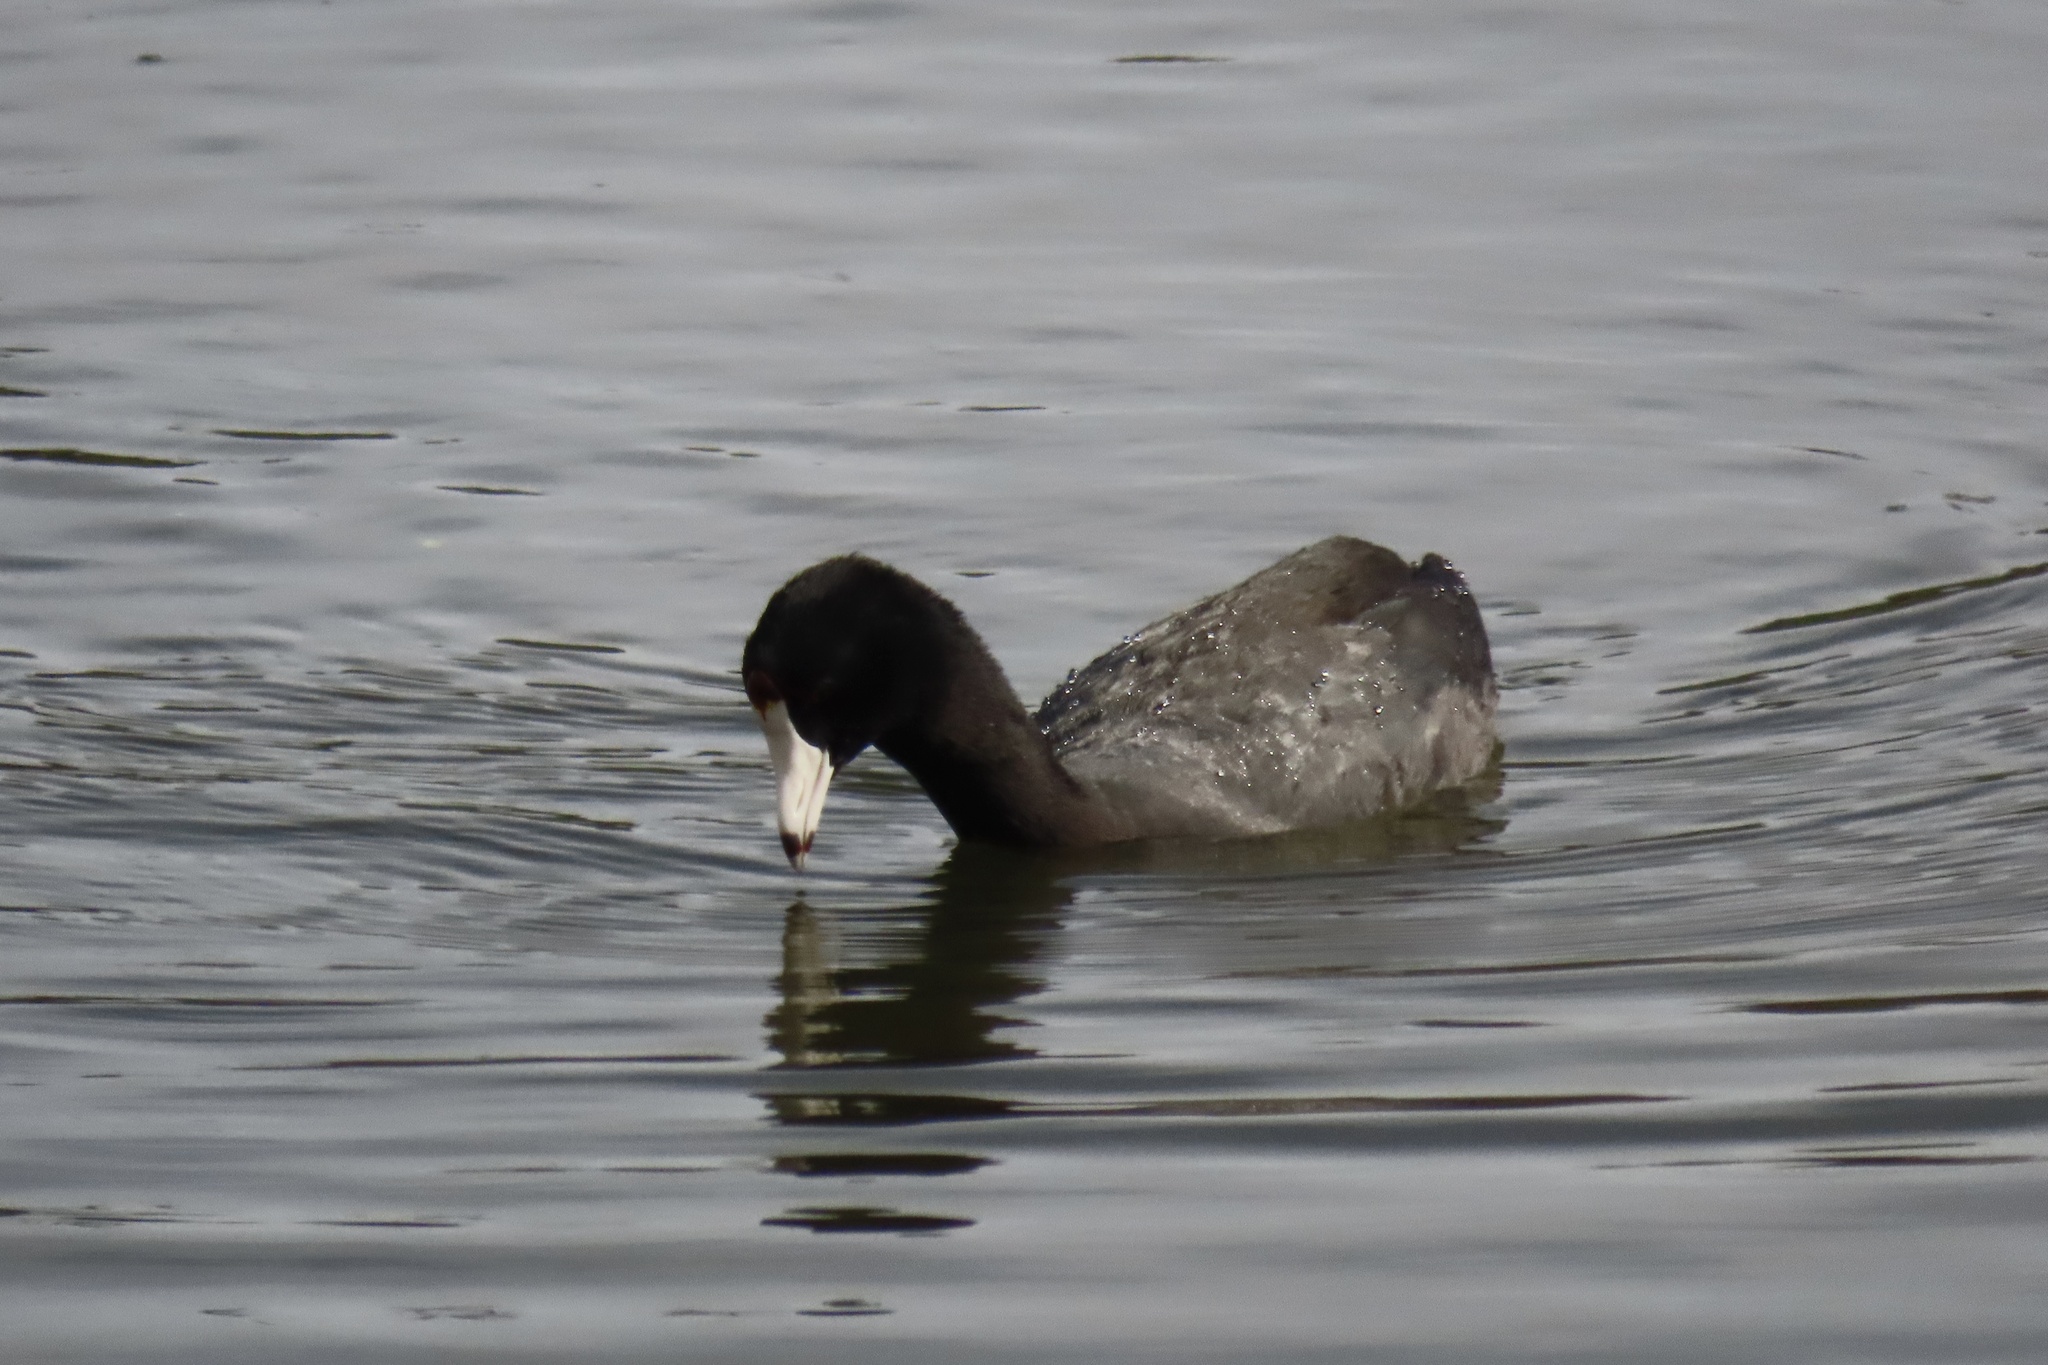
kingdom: Animalia
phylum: Chordata
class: Aves
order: Gruiformes
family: Rallidae
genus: Fulica
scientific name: Fulica americana
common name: American coot
